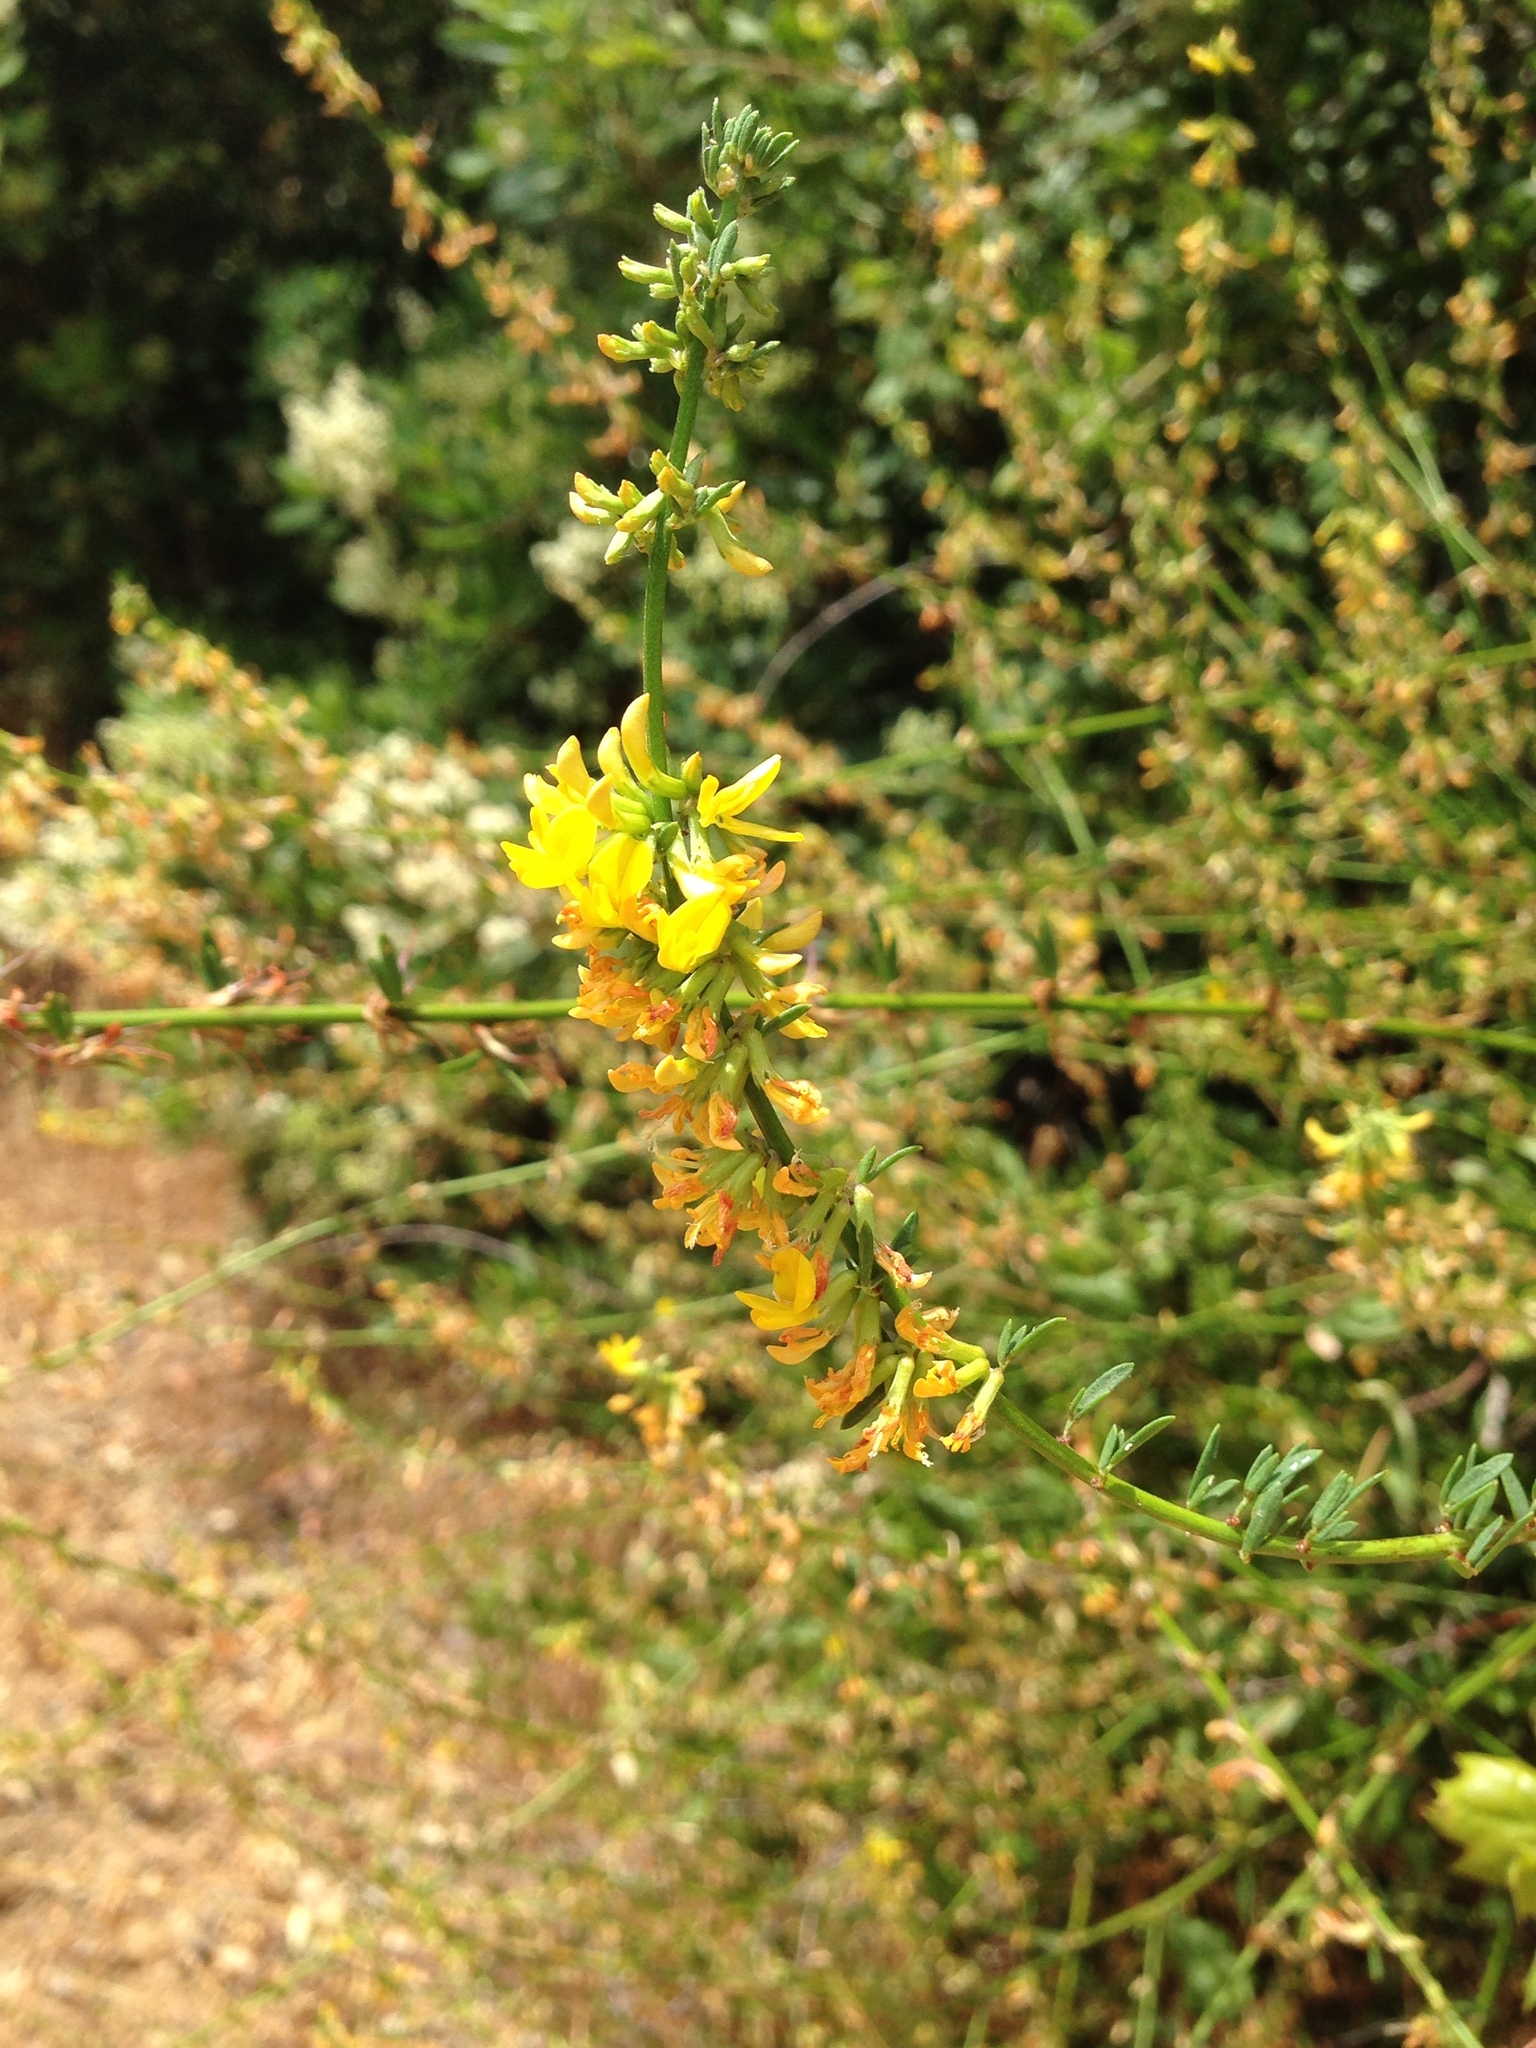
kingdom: Plantae
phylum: Tracheophyta
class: Magnoliopsida
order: Fabales
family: Fabaceae
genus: Acmispon
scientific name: Acmispon glaber
